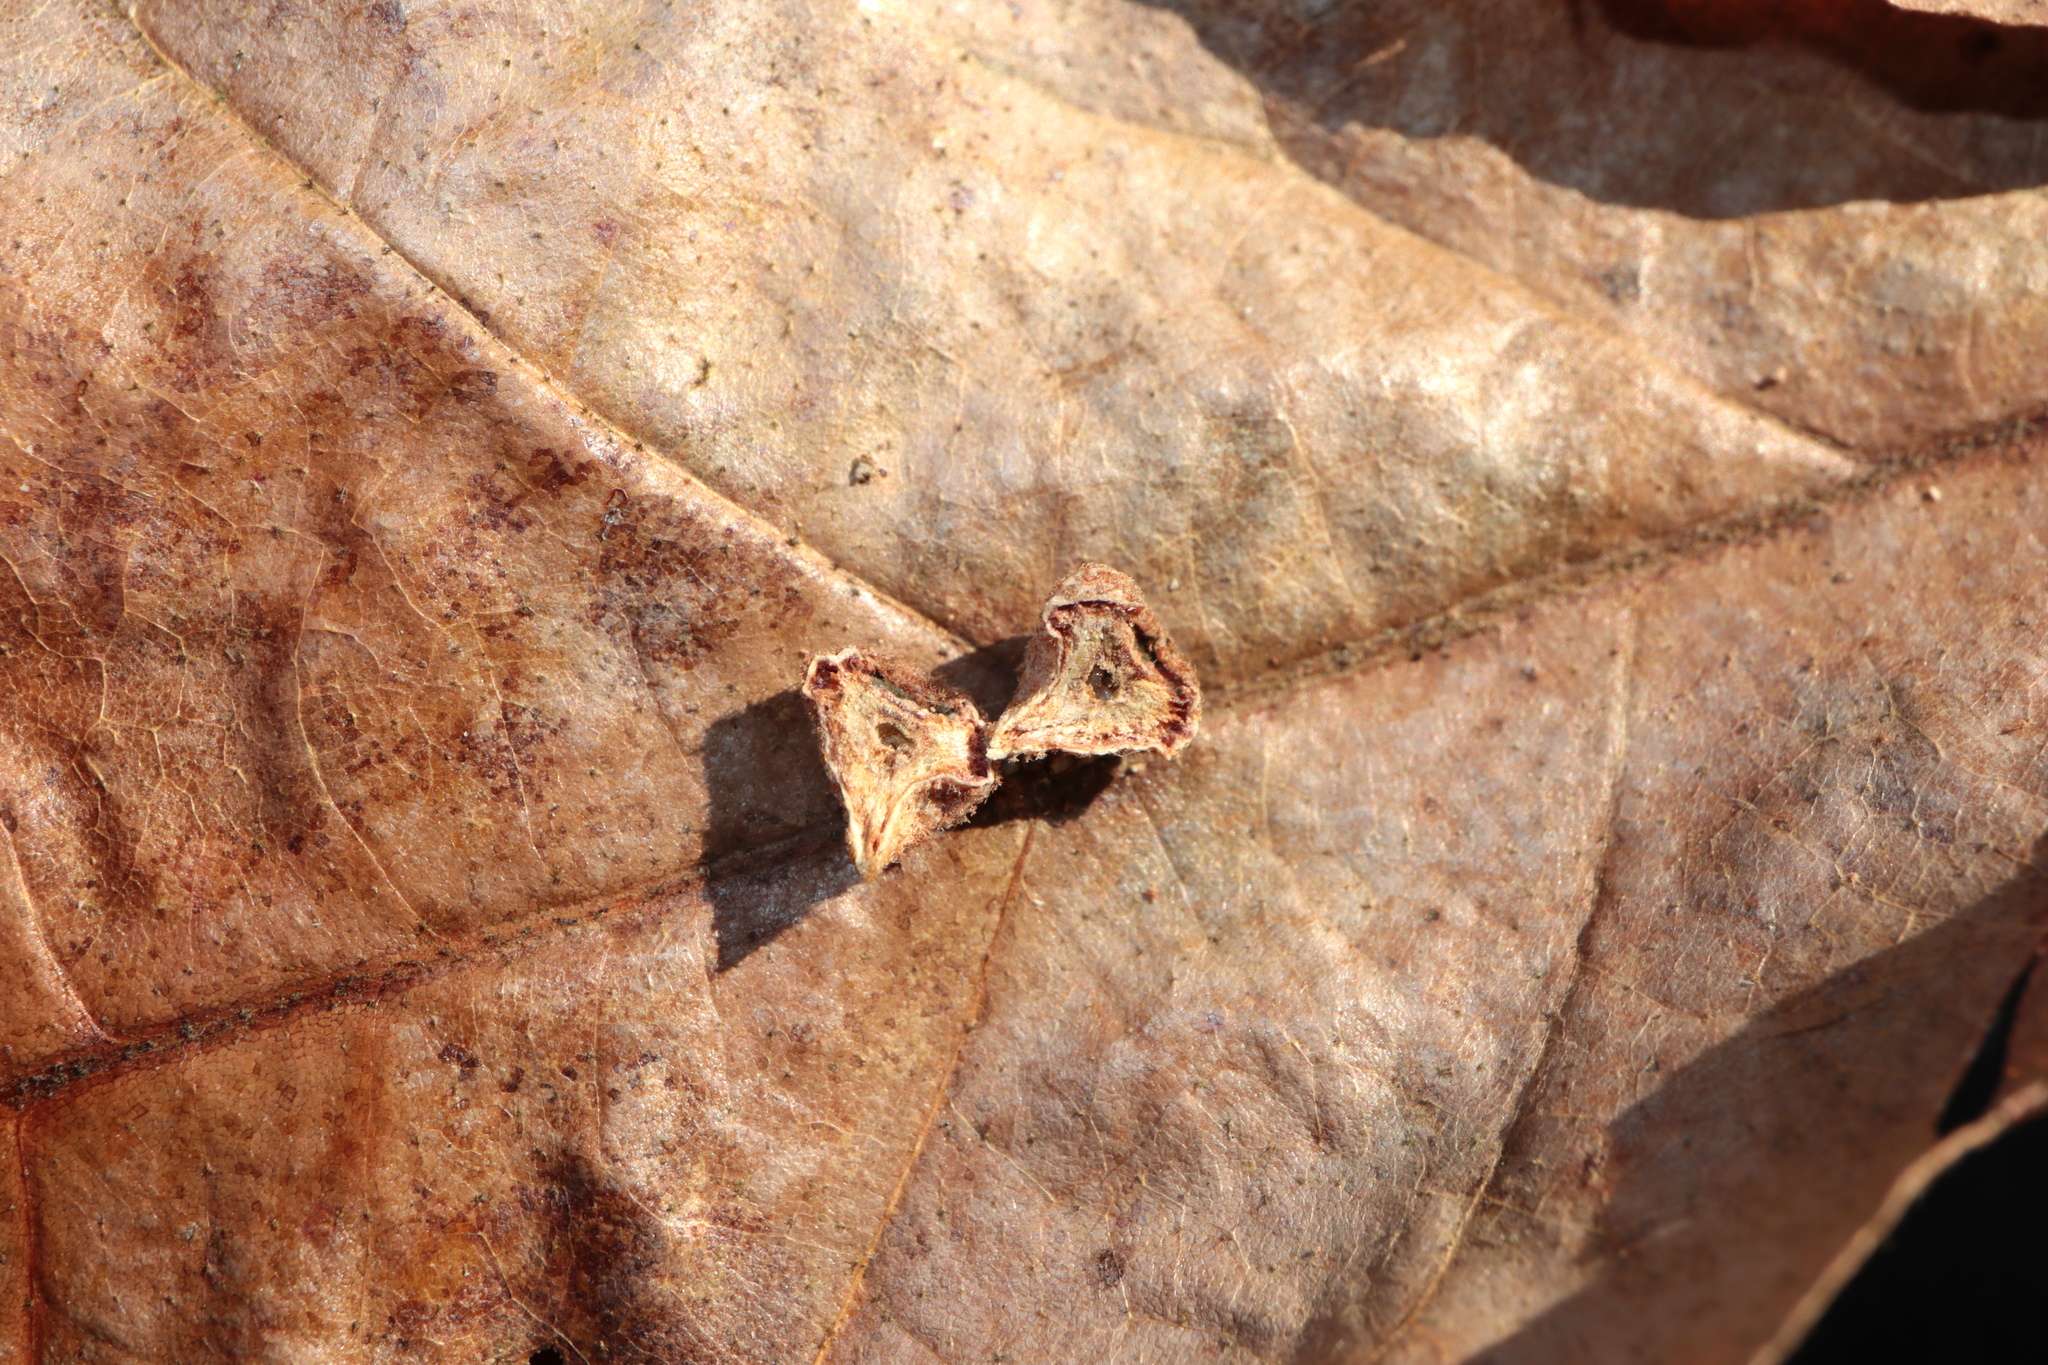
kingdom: Animalia
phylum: Arthropoda
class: Insecta
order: Hymenoptera
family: Cynipidae
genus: Biorhiza
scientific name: Biorhiza Sphaeroteras carolina
